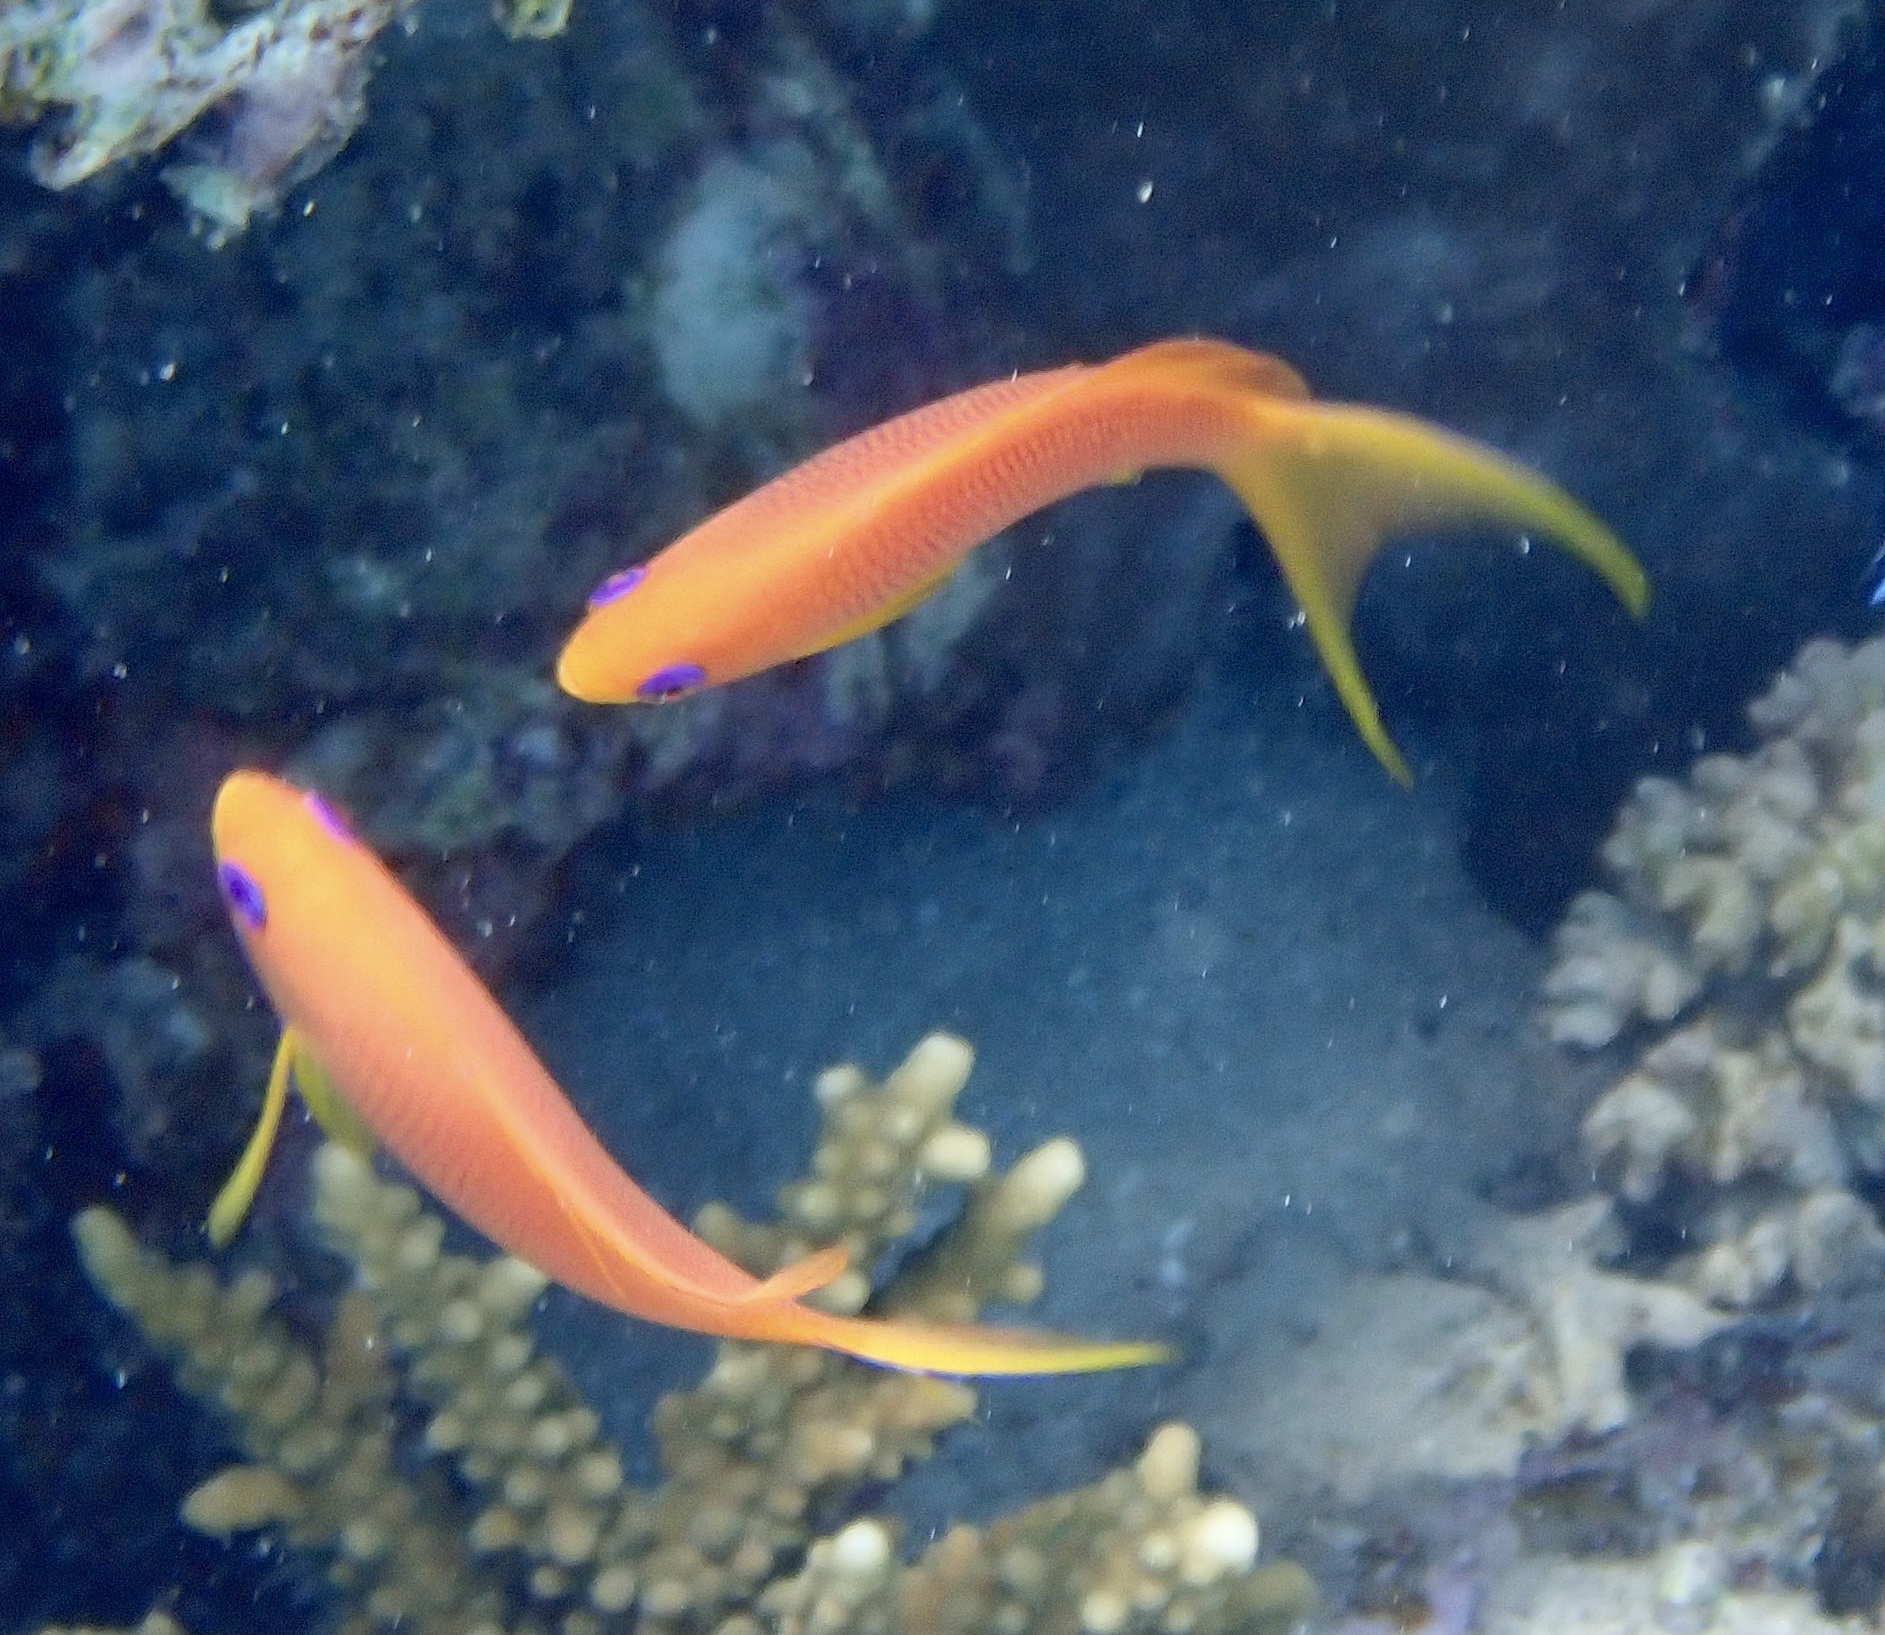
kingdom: Animalia
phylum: Chordata
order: Perciformes
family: Serranidae
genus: Pseudanthias
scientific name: Pseudanthias squamipinnis
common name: Scalefin anthias
